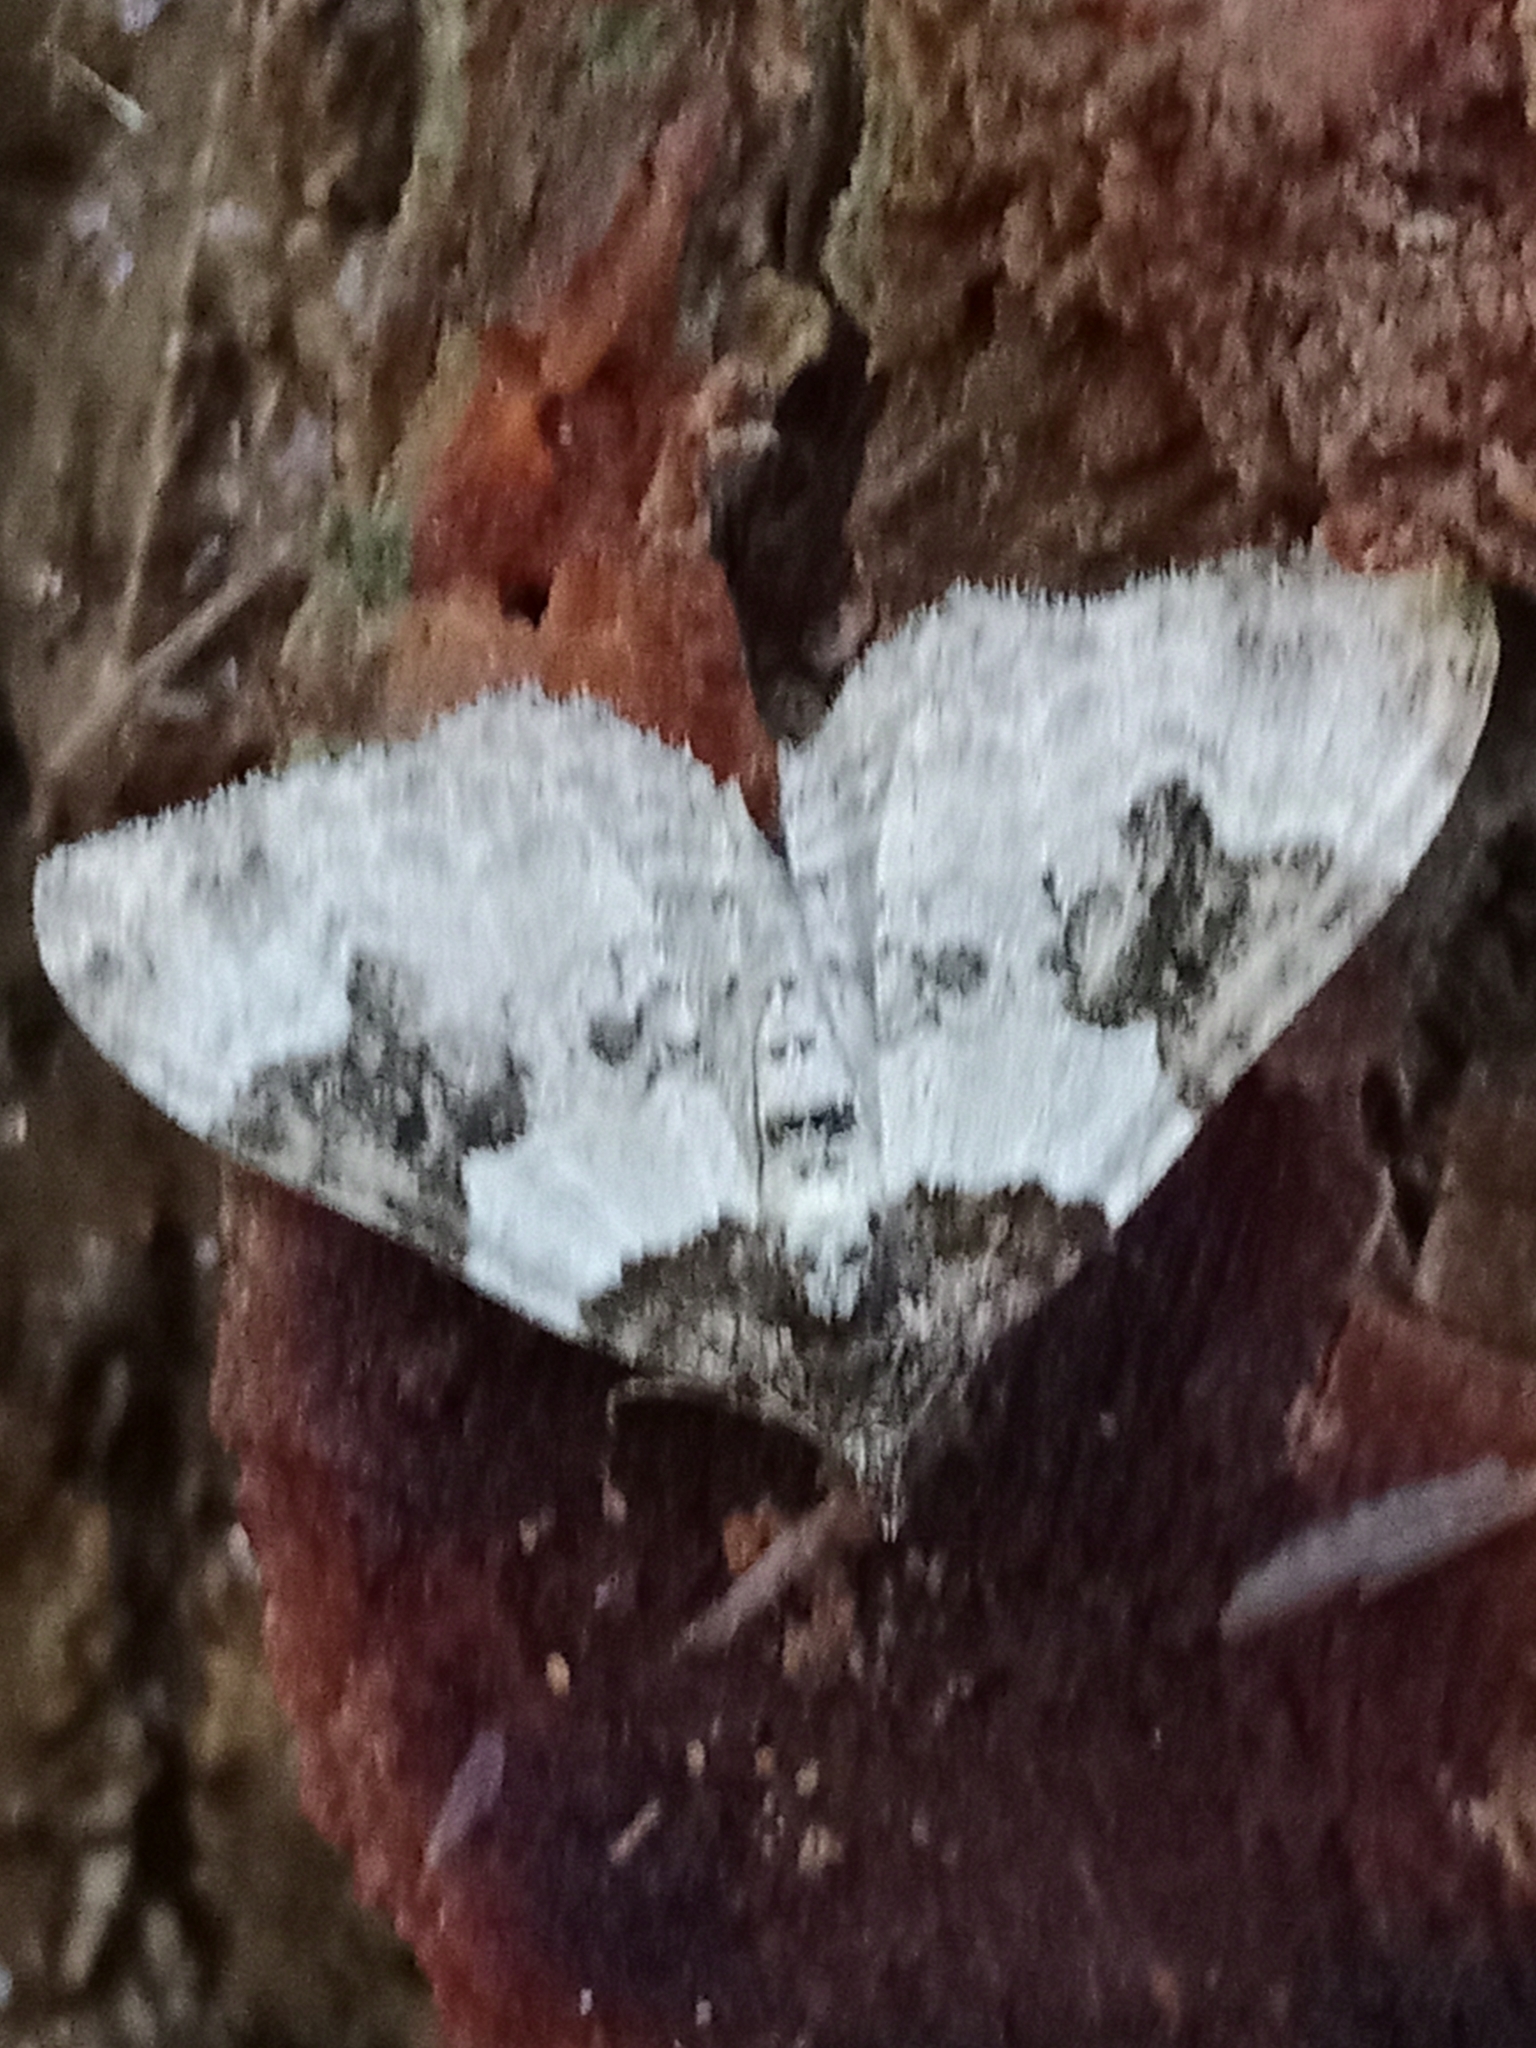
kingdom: Animalia
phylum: Arthropoda
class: Insecta
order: Lepidoptera
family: Geometridae
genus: Xanthorhoe
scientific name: Xanthorhoe fluctuata
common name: Garden carpet
